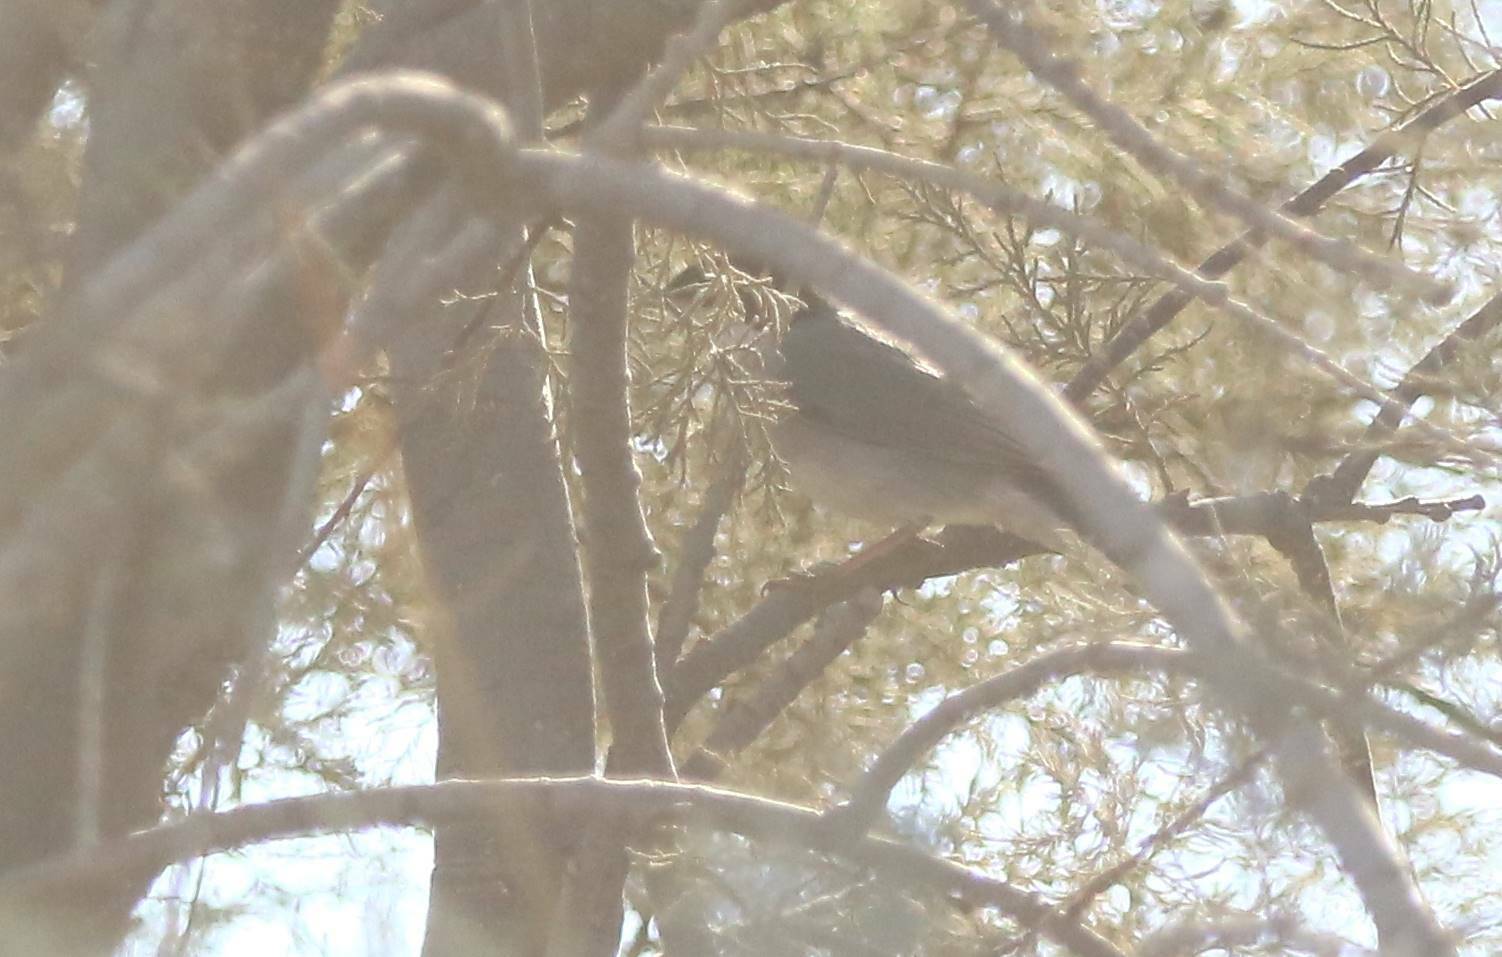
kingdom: Animalia
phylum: Chordata
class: Aves
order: Passeriformes
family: Sylviidae
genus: Curruca
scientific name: Curruca melanocephala
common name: Sardinian warbler
